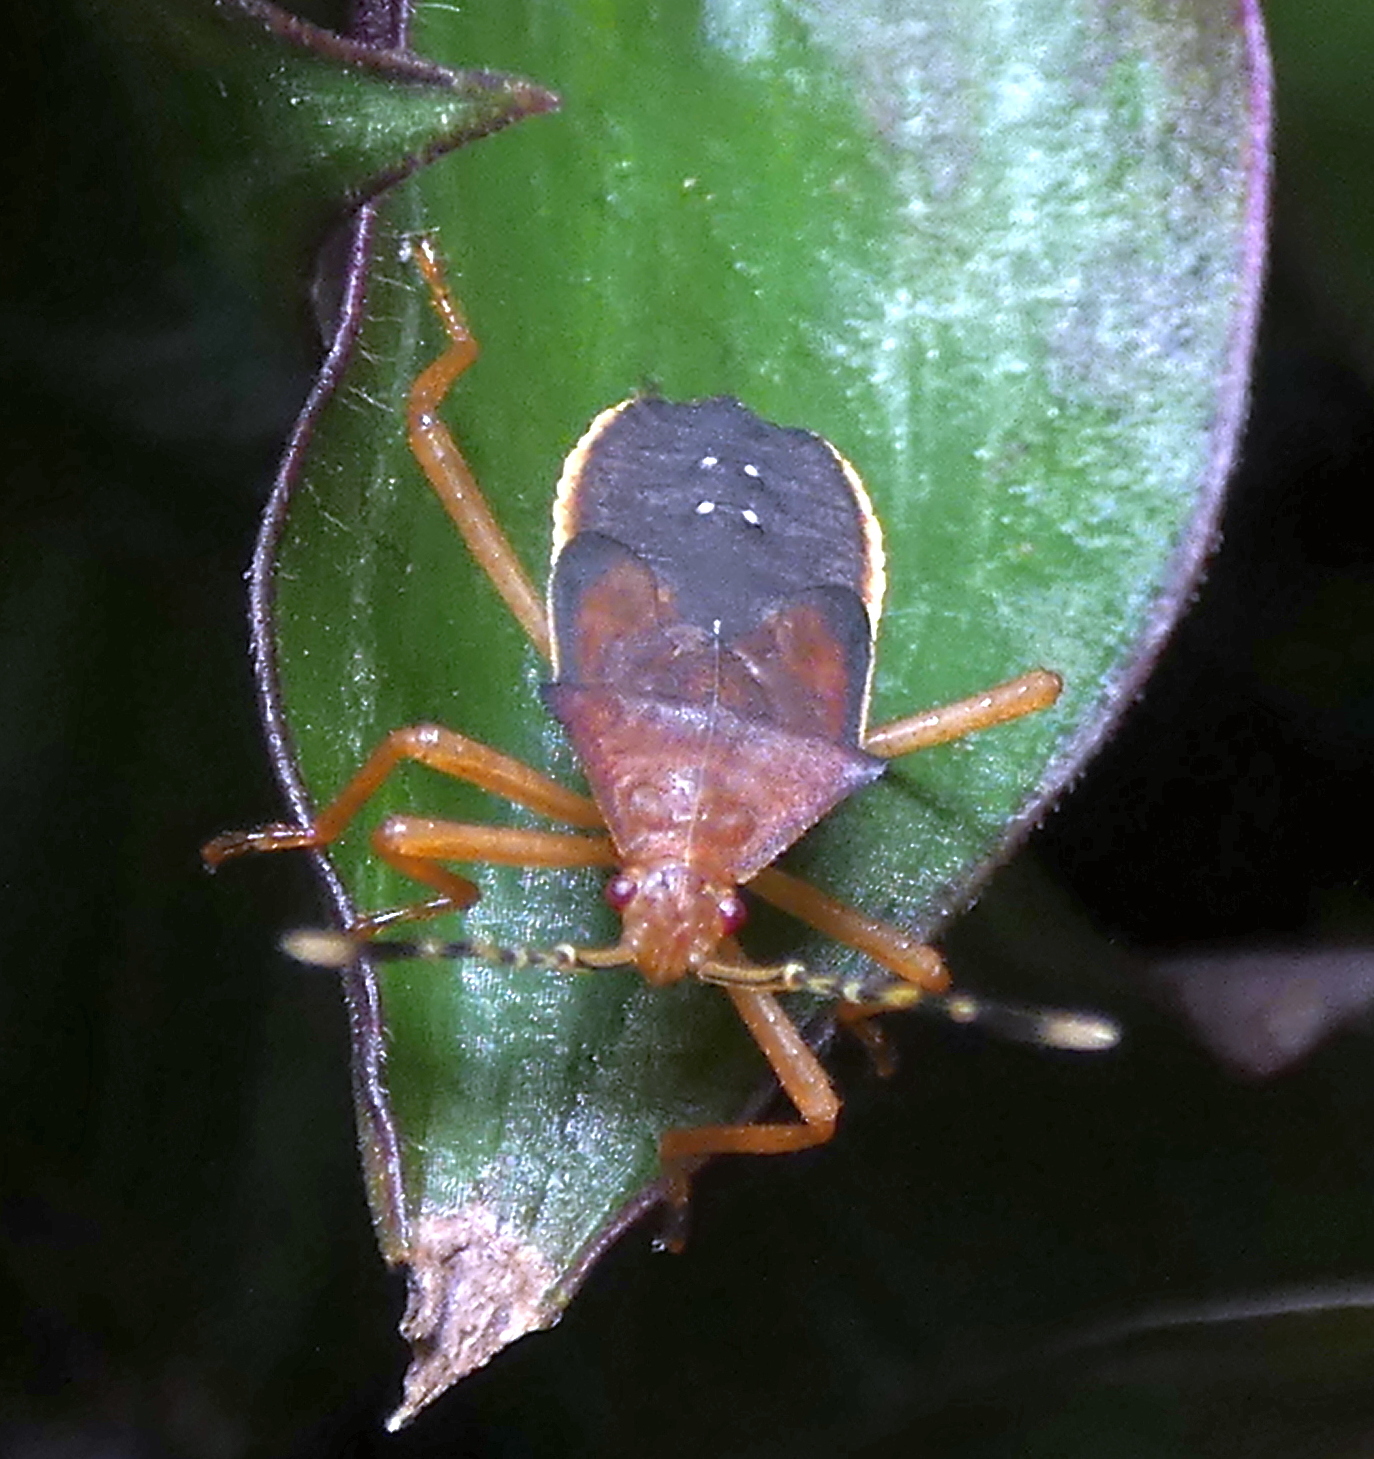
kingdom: Animalia
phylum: Arthropoda
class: Insecta
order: Hemiptera
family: Coreidae
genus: Anasa
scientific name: Anasa varicornis
